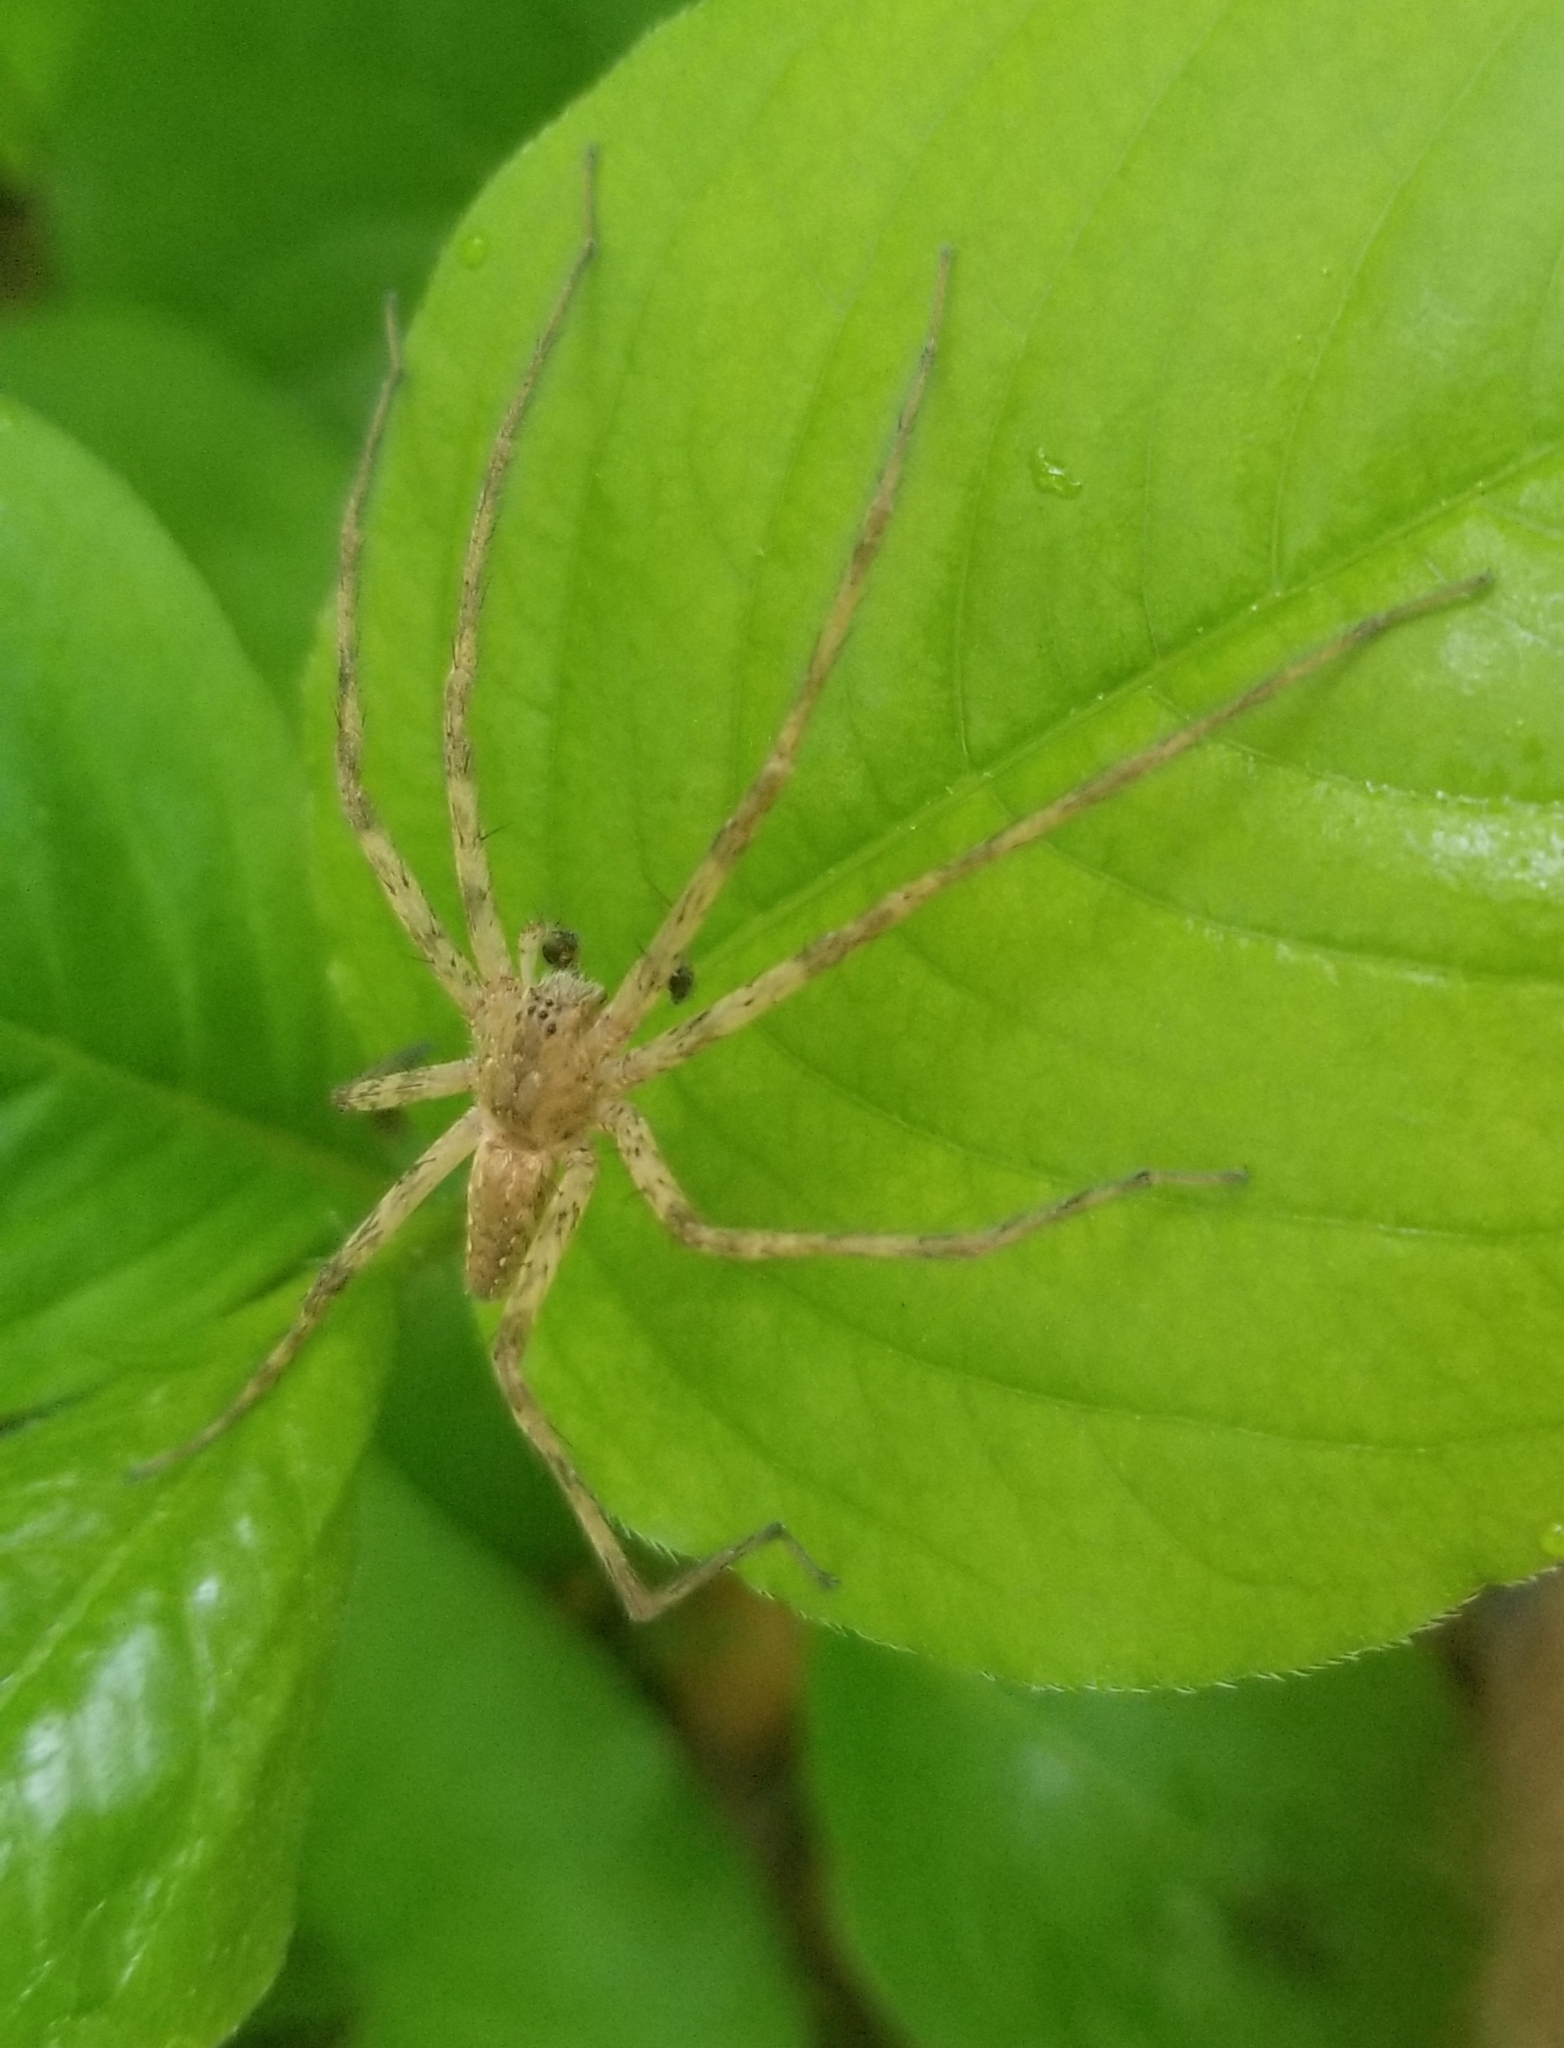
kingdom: Animalia
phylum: Arthropoda
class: Arachnida
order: Araneae
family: Pisauridae
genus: Pisaurina
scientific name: Pisaurina mira
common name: American nursery web spider
